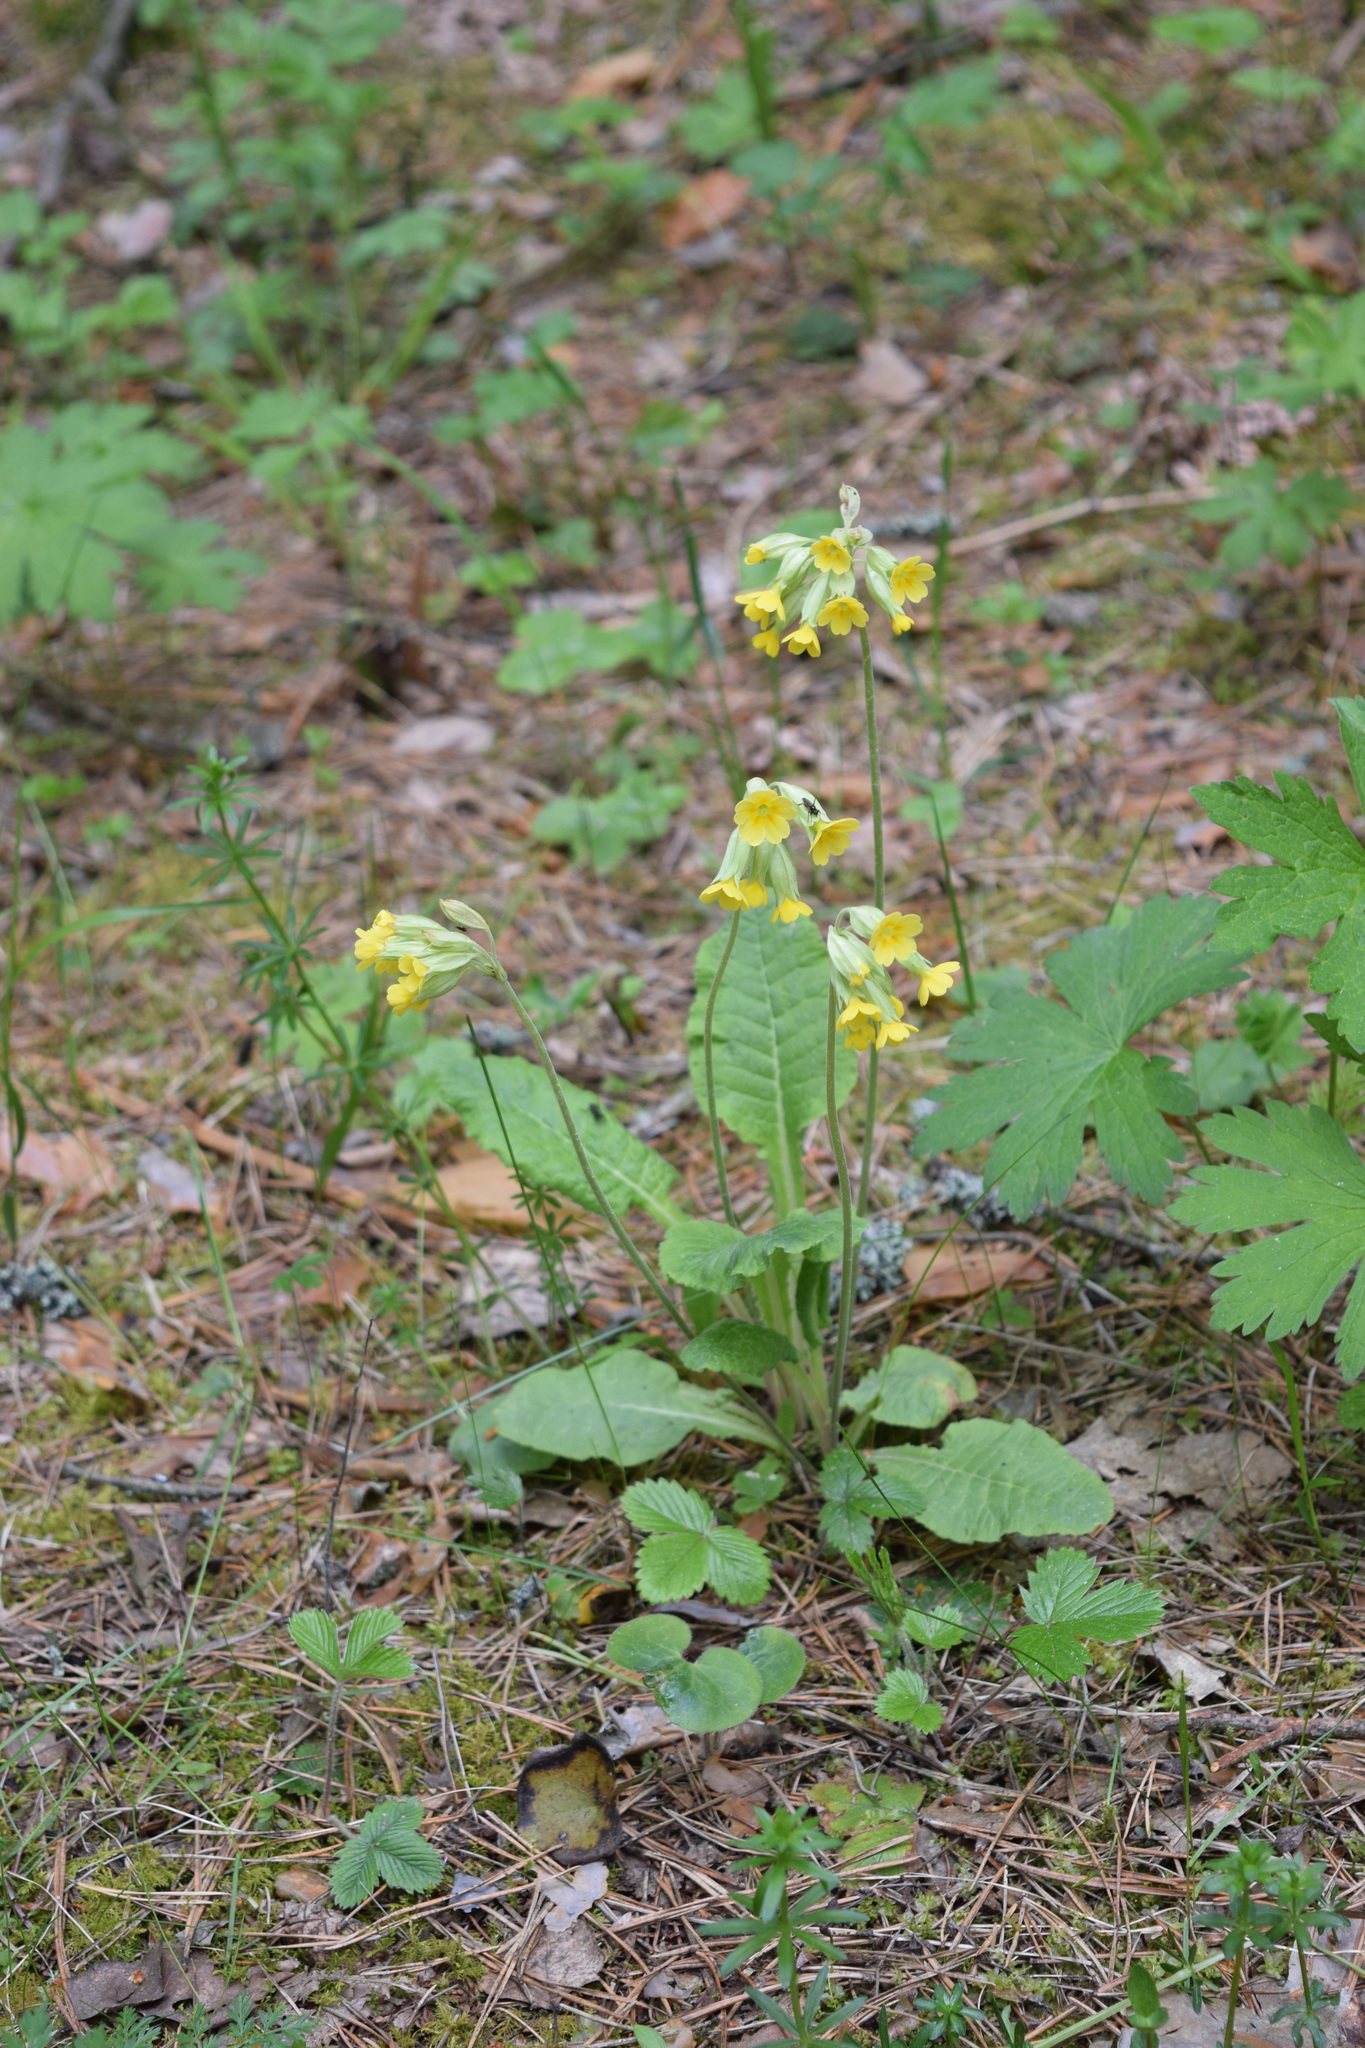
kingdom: Plantae
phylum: Tracheophyta
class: Magnoliopsida
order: Ericales
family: Primulaceae
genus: Primula
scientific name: Primula veris
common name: Cowslip
